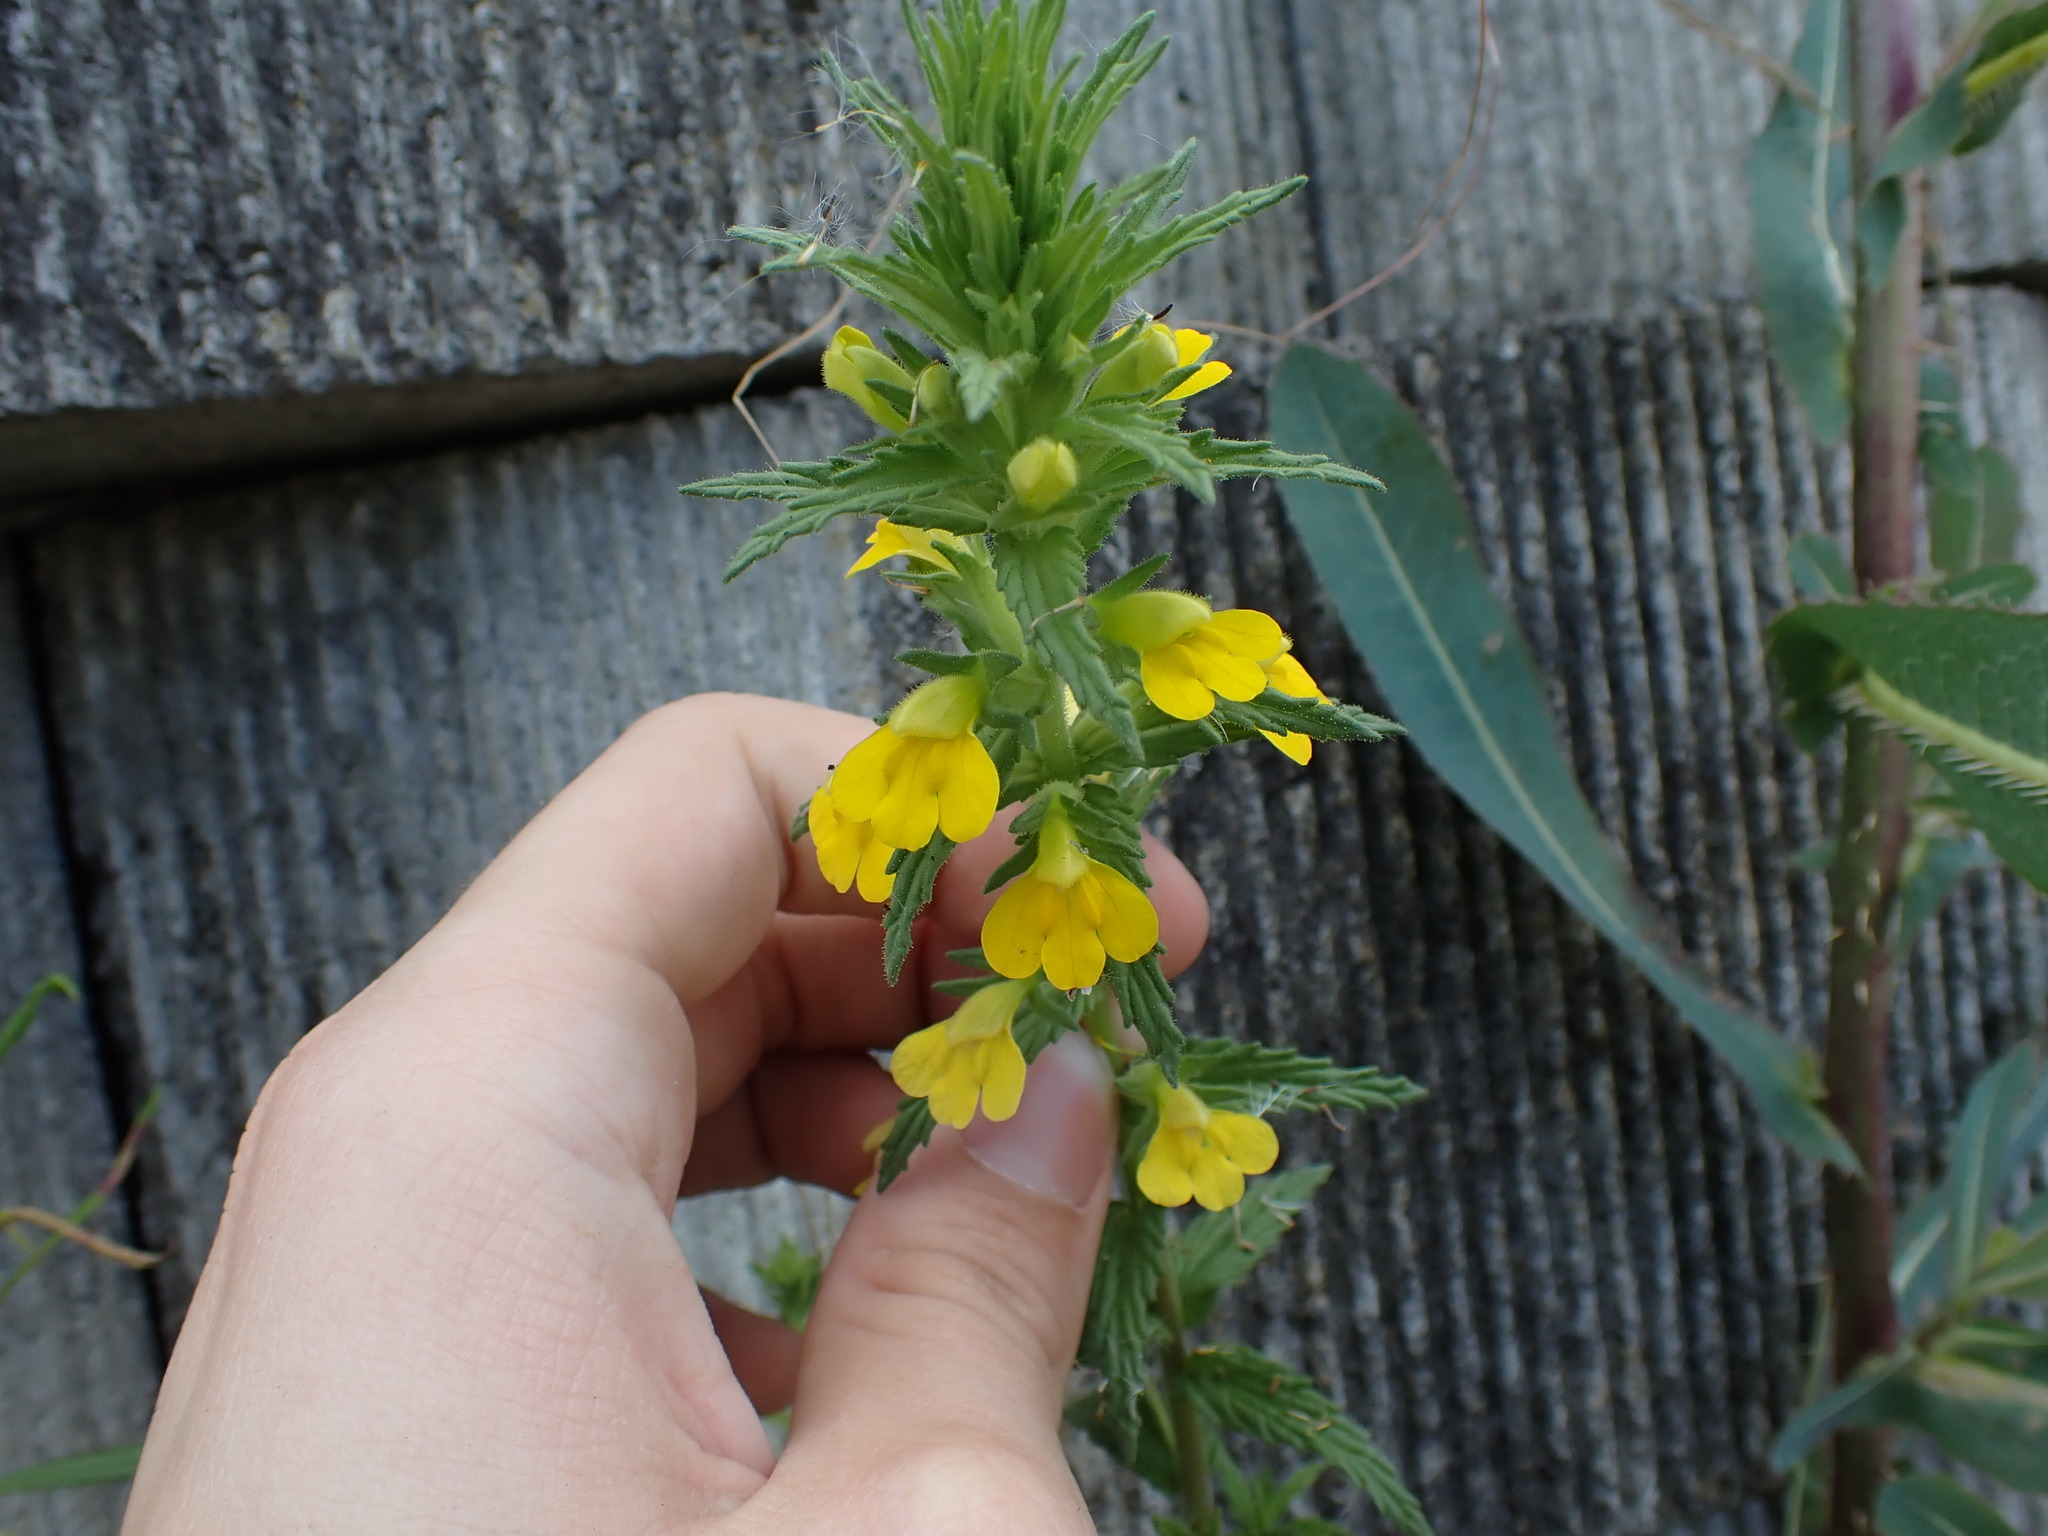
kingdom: Plantae
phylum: Tracheophyta
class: Magnoliopsida
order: Lamiales
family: Orobanchaceae
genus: Bellardia
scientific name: Bellardia viscosa
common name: Sticky parentucellia
